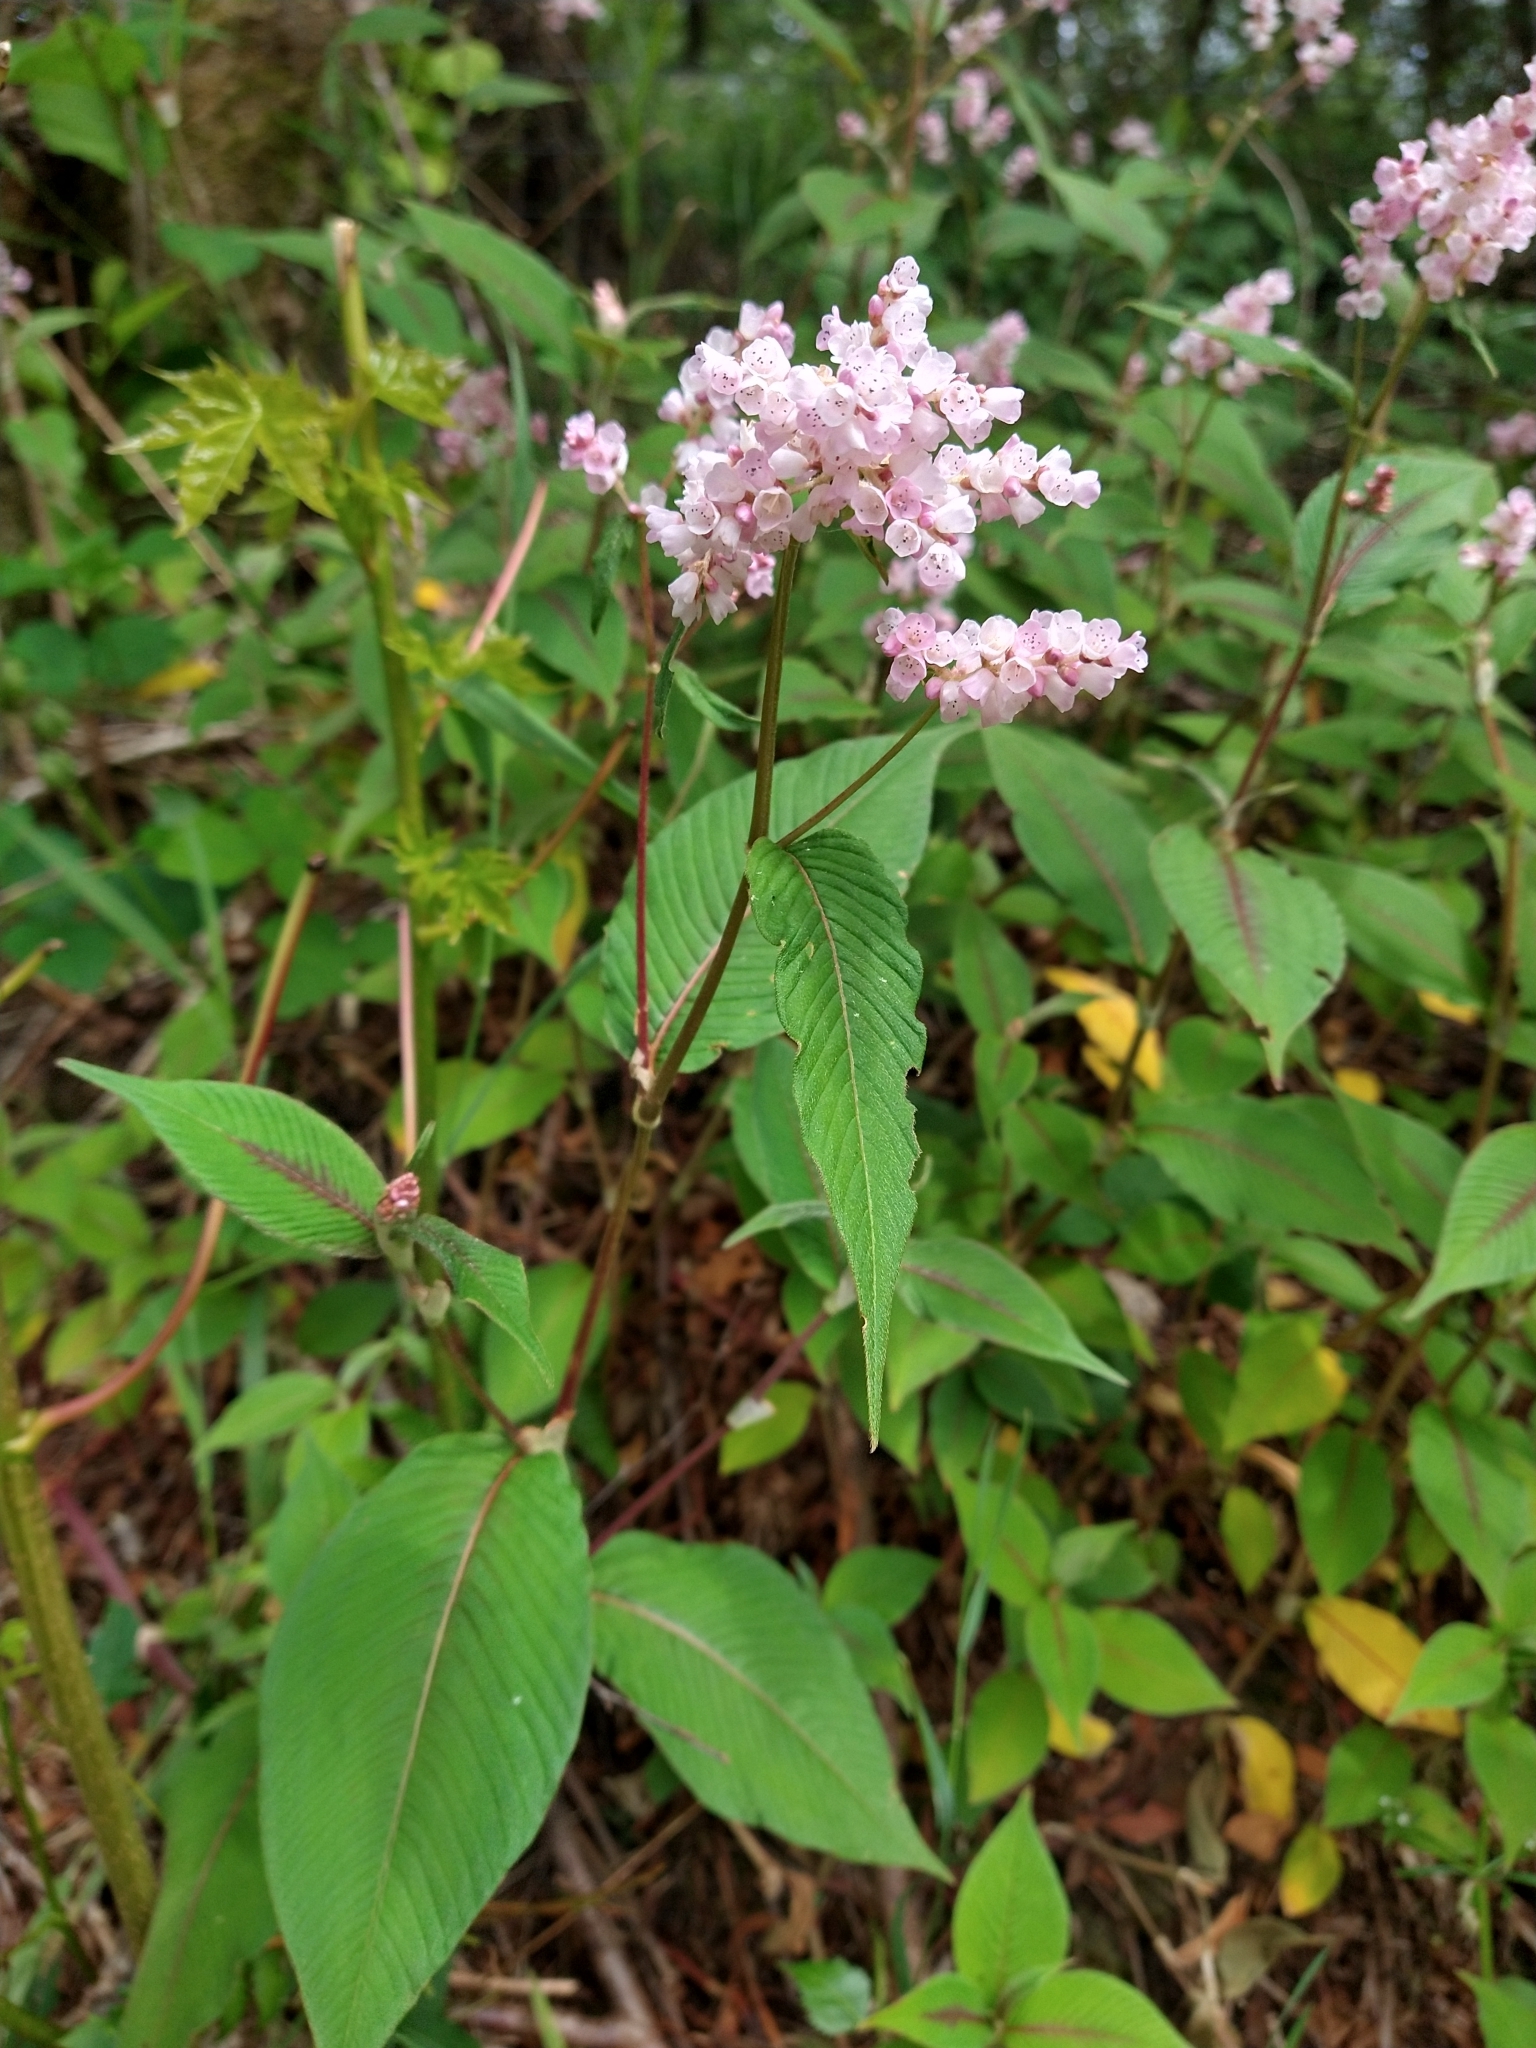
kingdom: Plantae
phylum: Tracheophyta
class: Magnoliopsida
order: Caryophyllales
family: Polygonaceae
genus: Koenigia
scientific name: Koenigia campanulata
